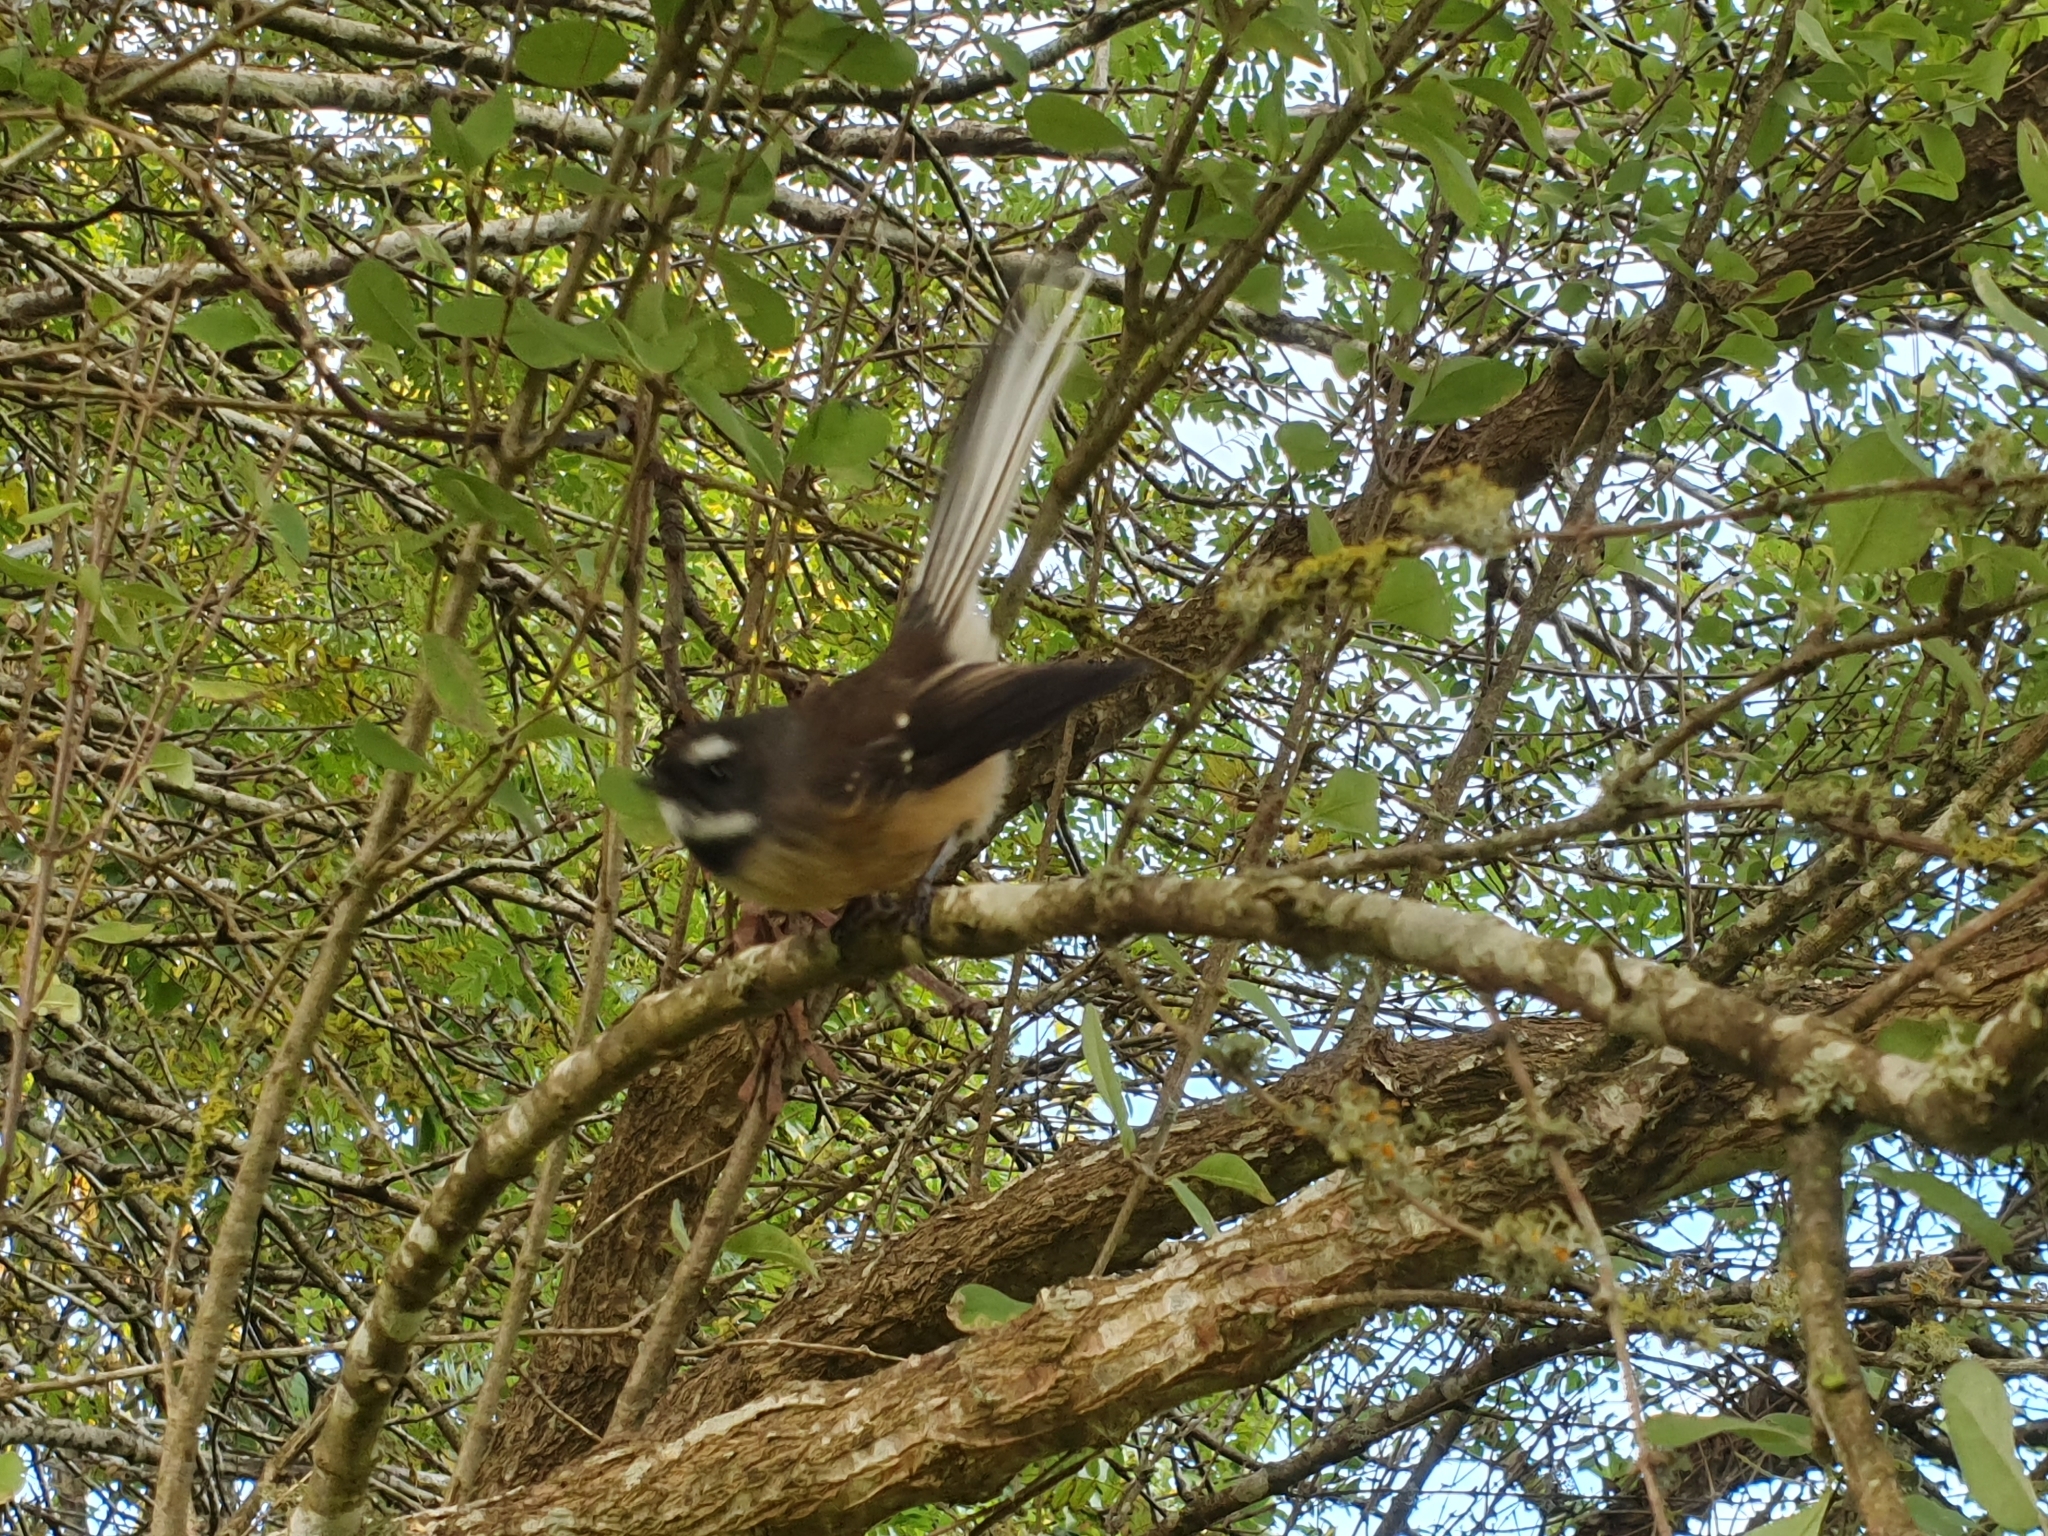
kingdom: Animalia
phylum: Chordata
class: Aves
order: Passeriformes
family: Rhipiduridae
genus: Rhipidura
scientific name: Rhipidura fuliginosa
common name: New zealand fantail
